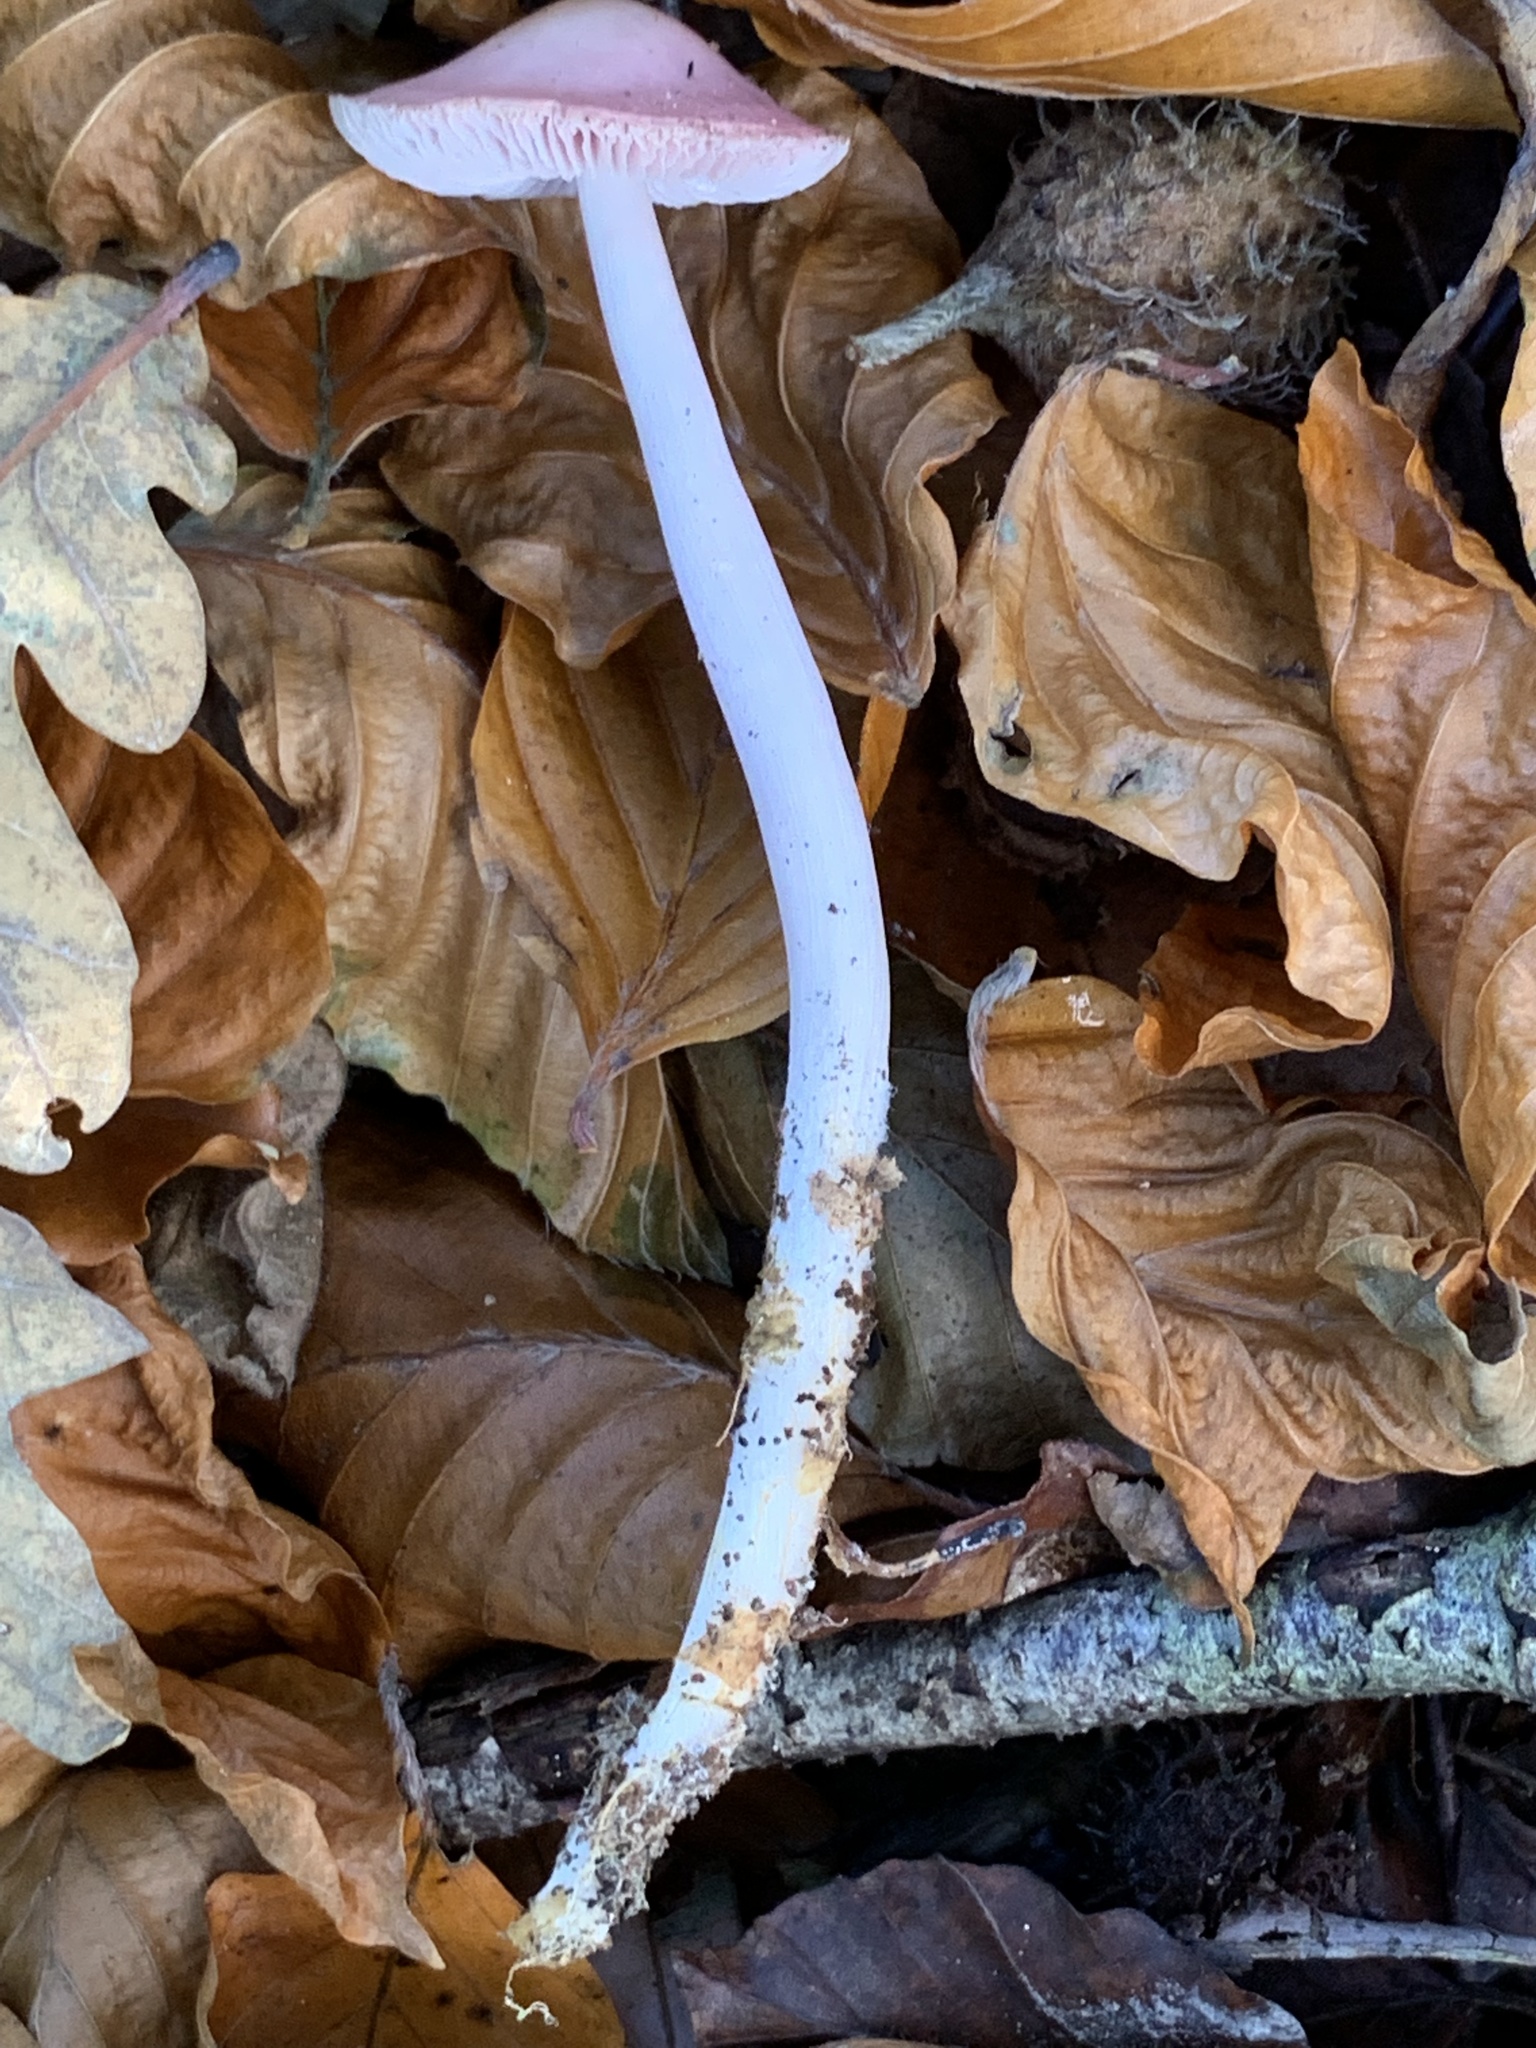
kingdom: Fungi
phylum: Basidiomycota
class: Agaricomycetes
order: Agaricales
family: Mycenaceae
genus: Mycena
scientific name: Mycena rosea
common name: Rosy bonnet
